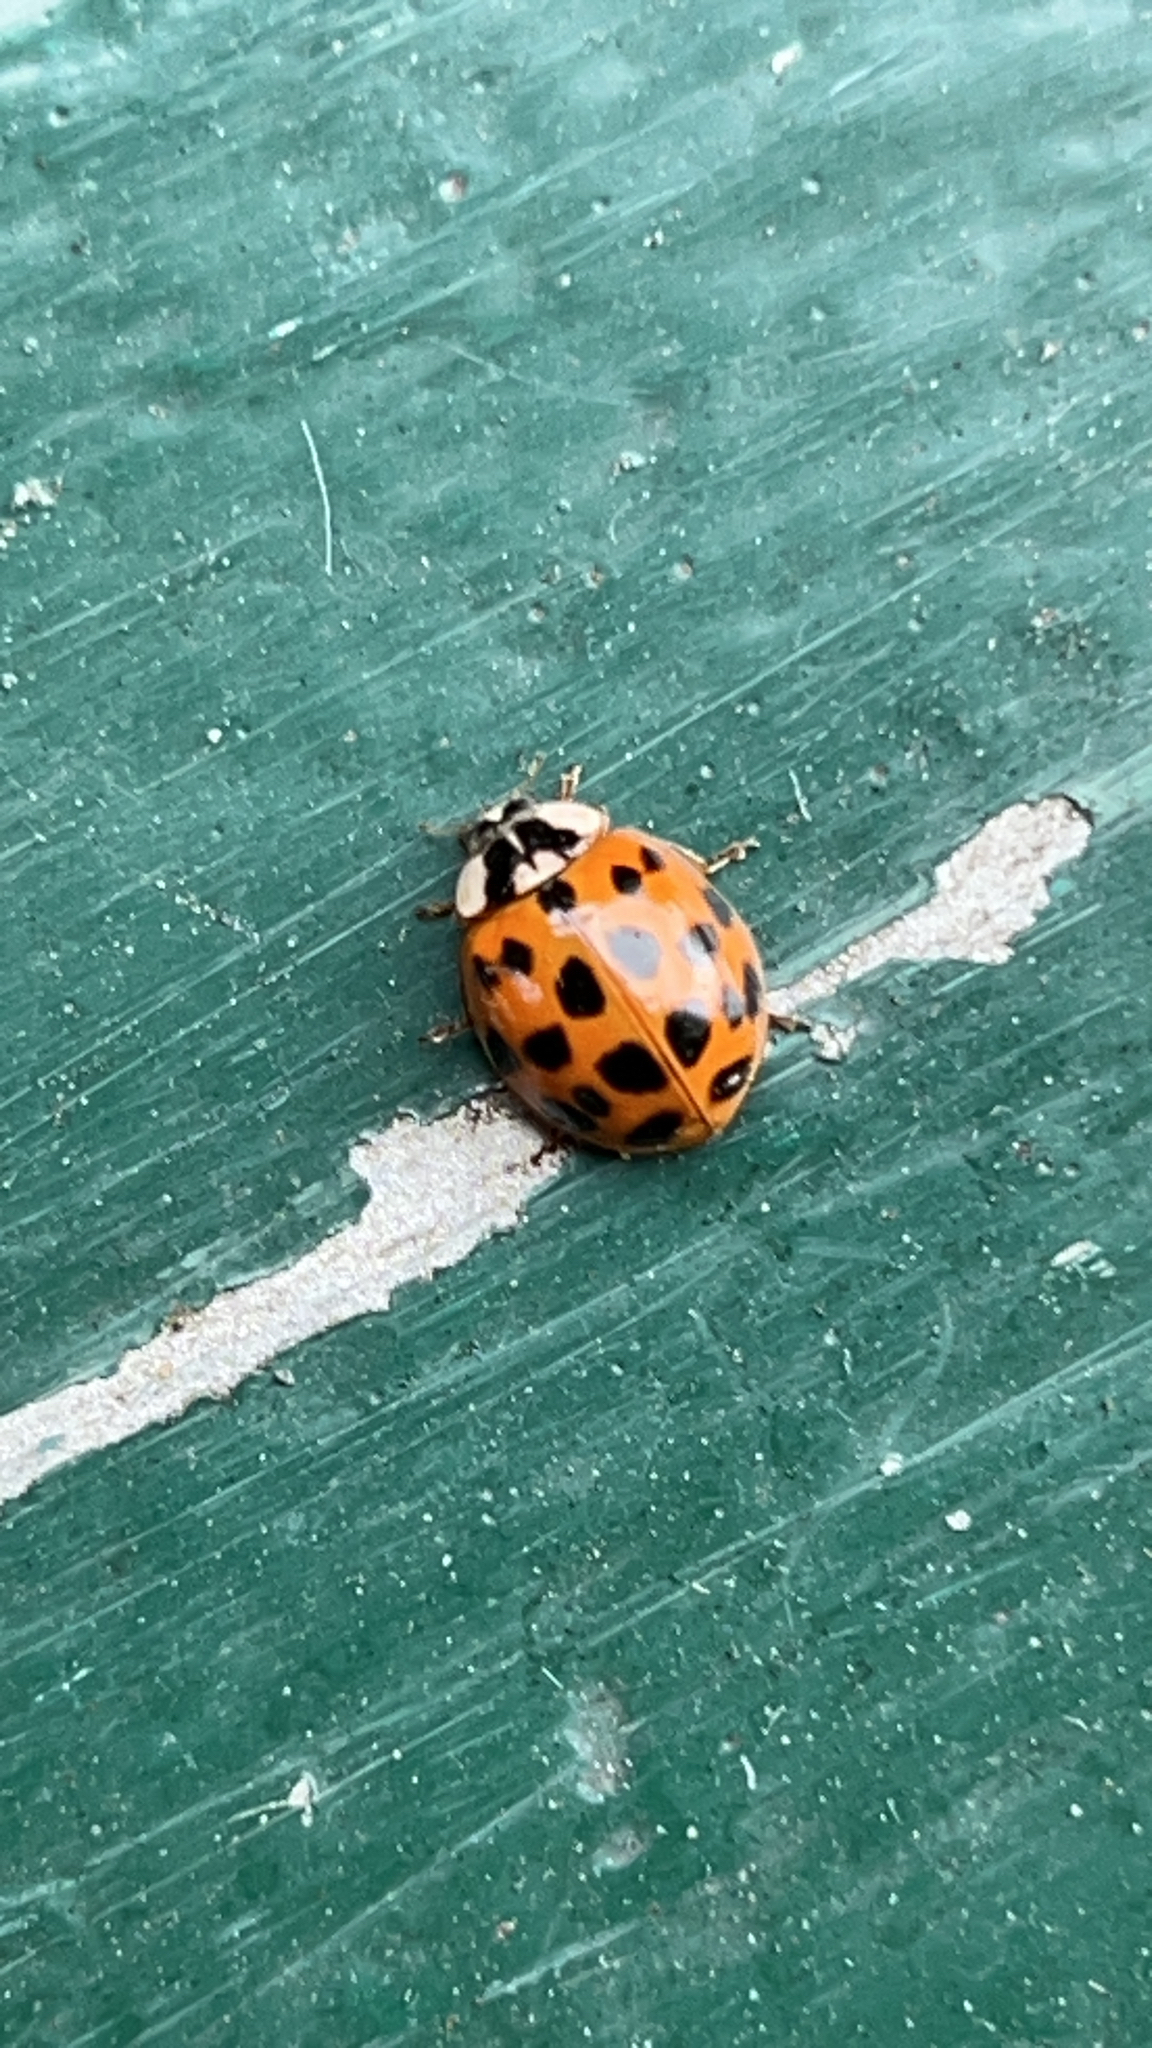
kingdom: Animalia
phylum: Arthropoda
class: Insecta
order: Coleoptera
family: Coccinellidae
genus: Harmonia
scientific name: Harmonia axyridis
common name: Harlequin ladybird
